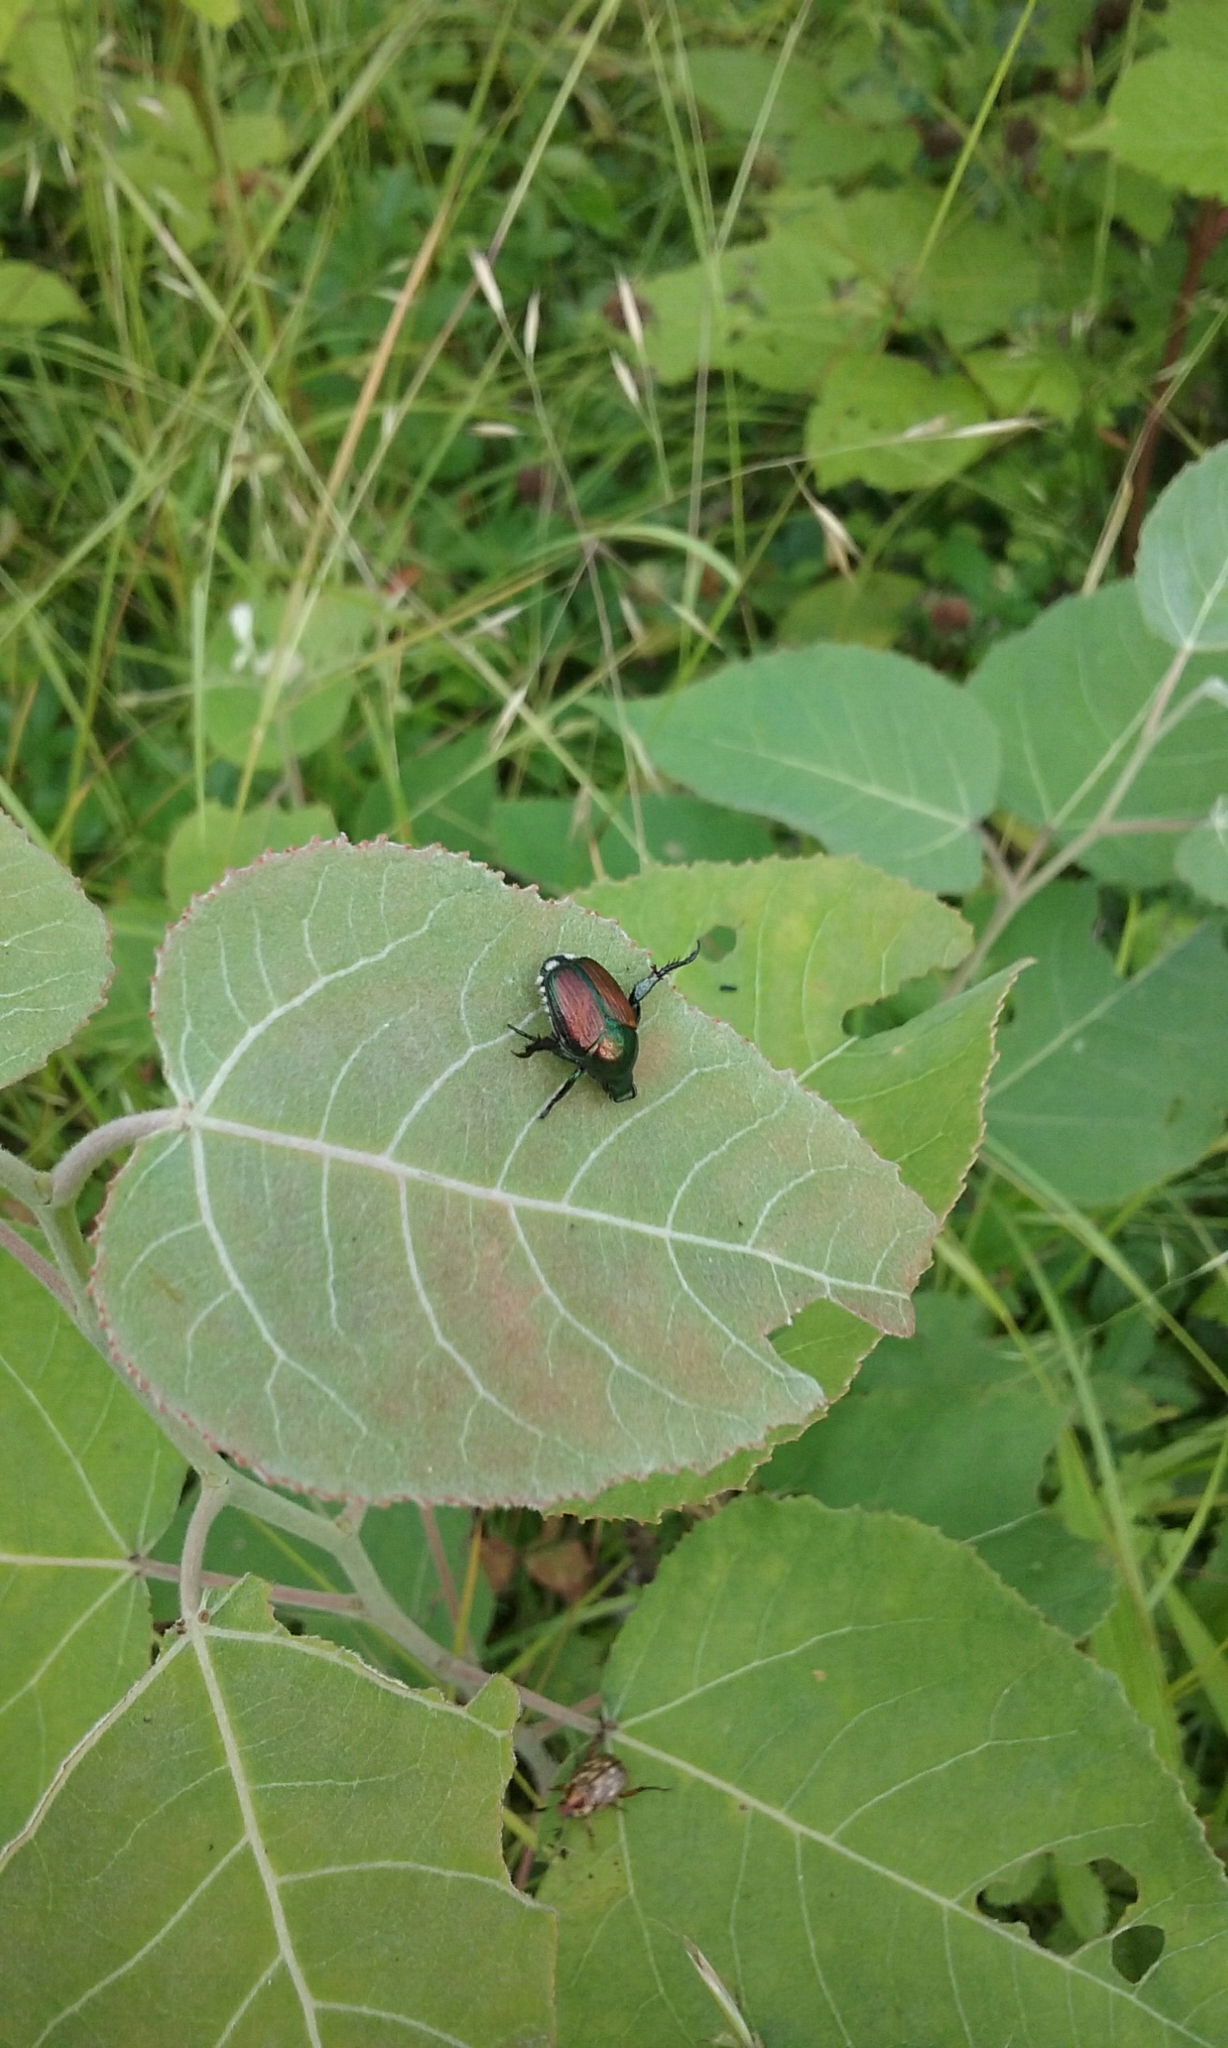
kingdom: Animalia
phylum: Arthropoda
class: Insecta
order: Coleoptera
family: Scarabaeidae
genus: Popillia
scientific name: Popillia japonica
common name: Japanese beetle
